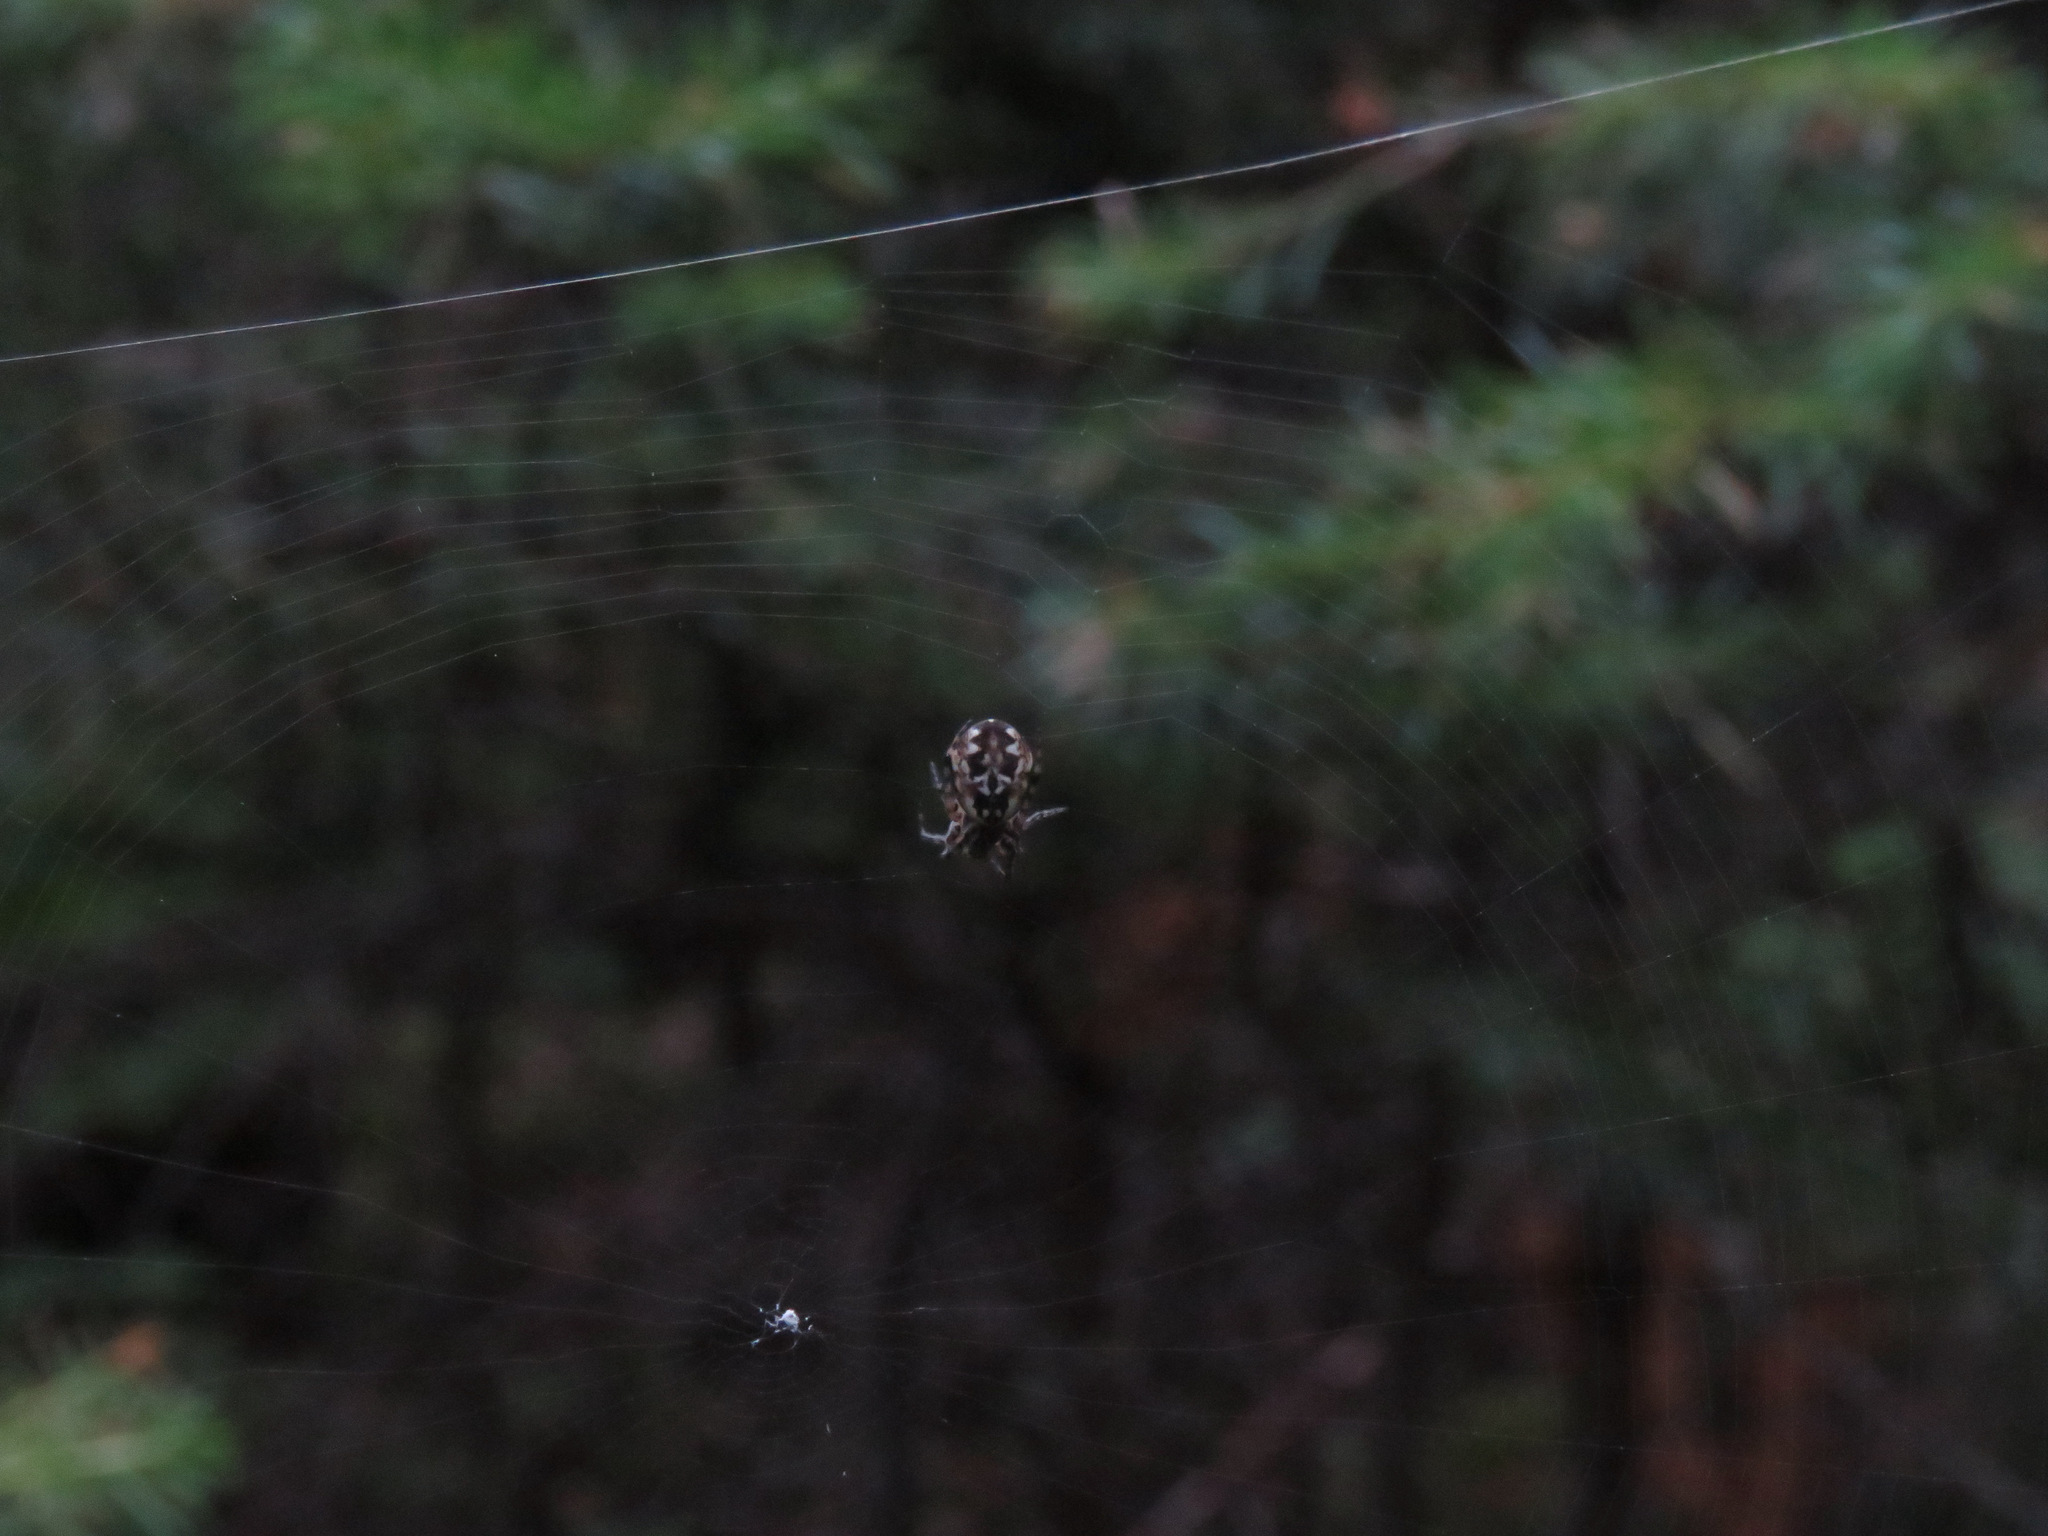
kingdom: Animalia
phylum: Arthropoda
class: Arachnida
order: Araneae
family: Araneidae
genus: Cyclosa
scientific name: Cyclosa conica
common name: Conical trashline orbweaver
